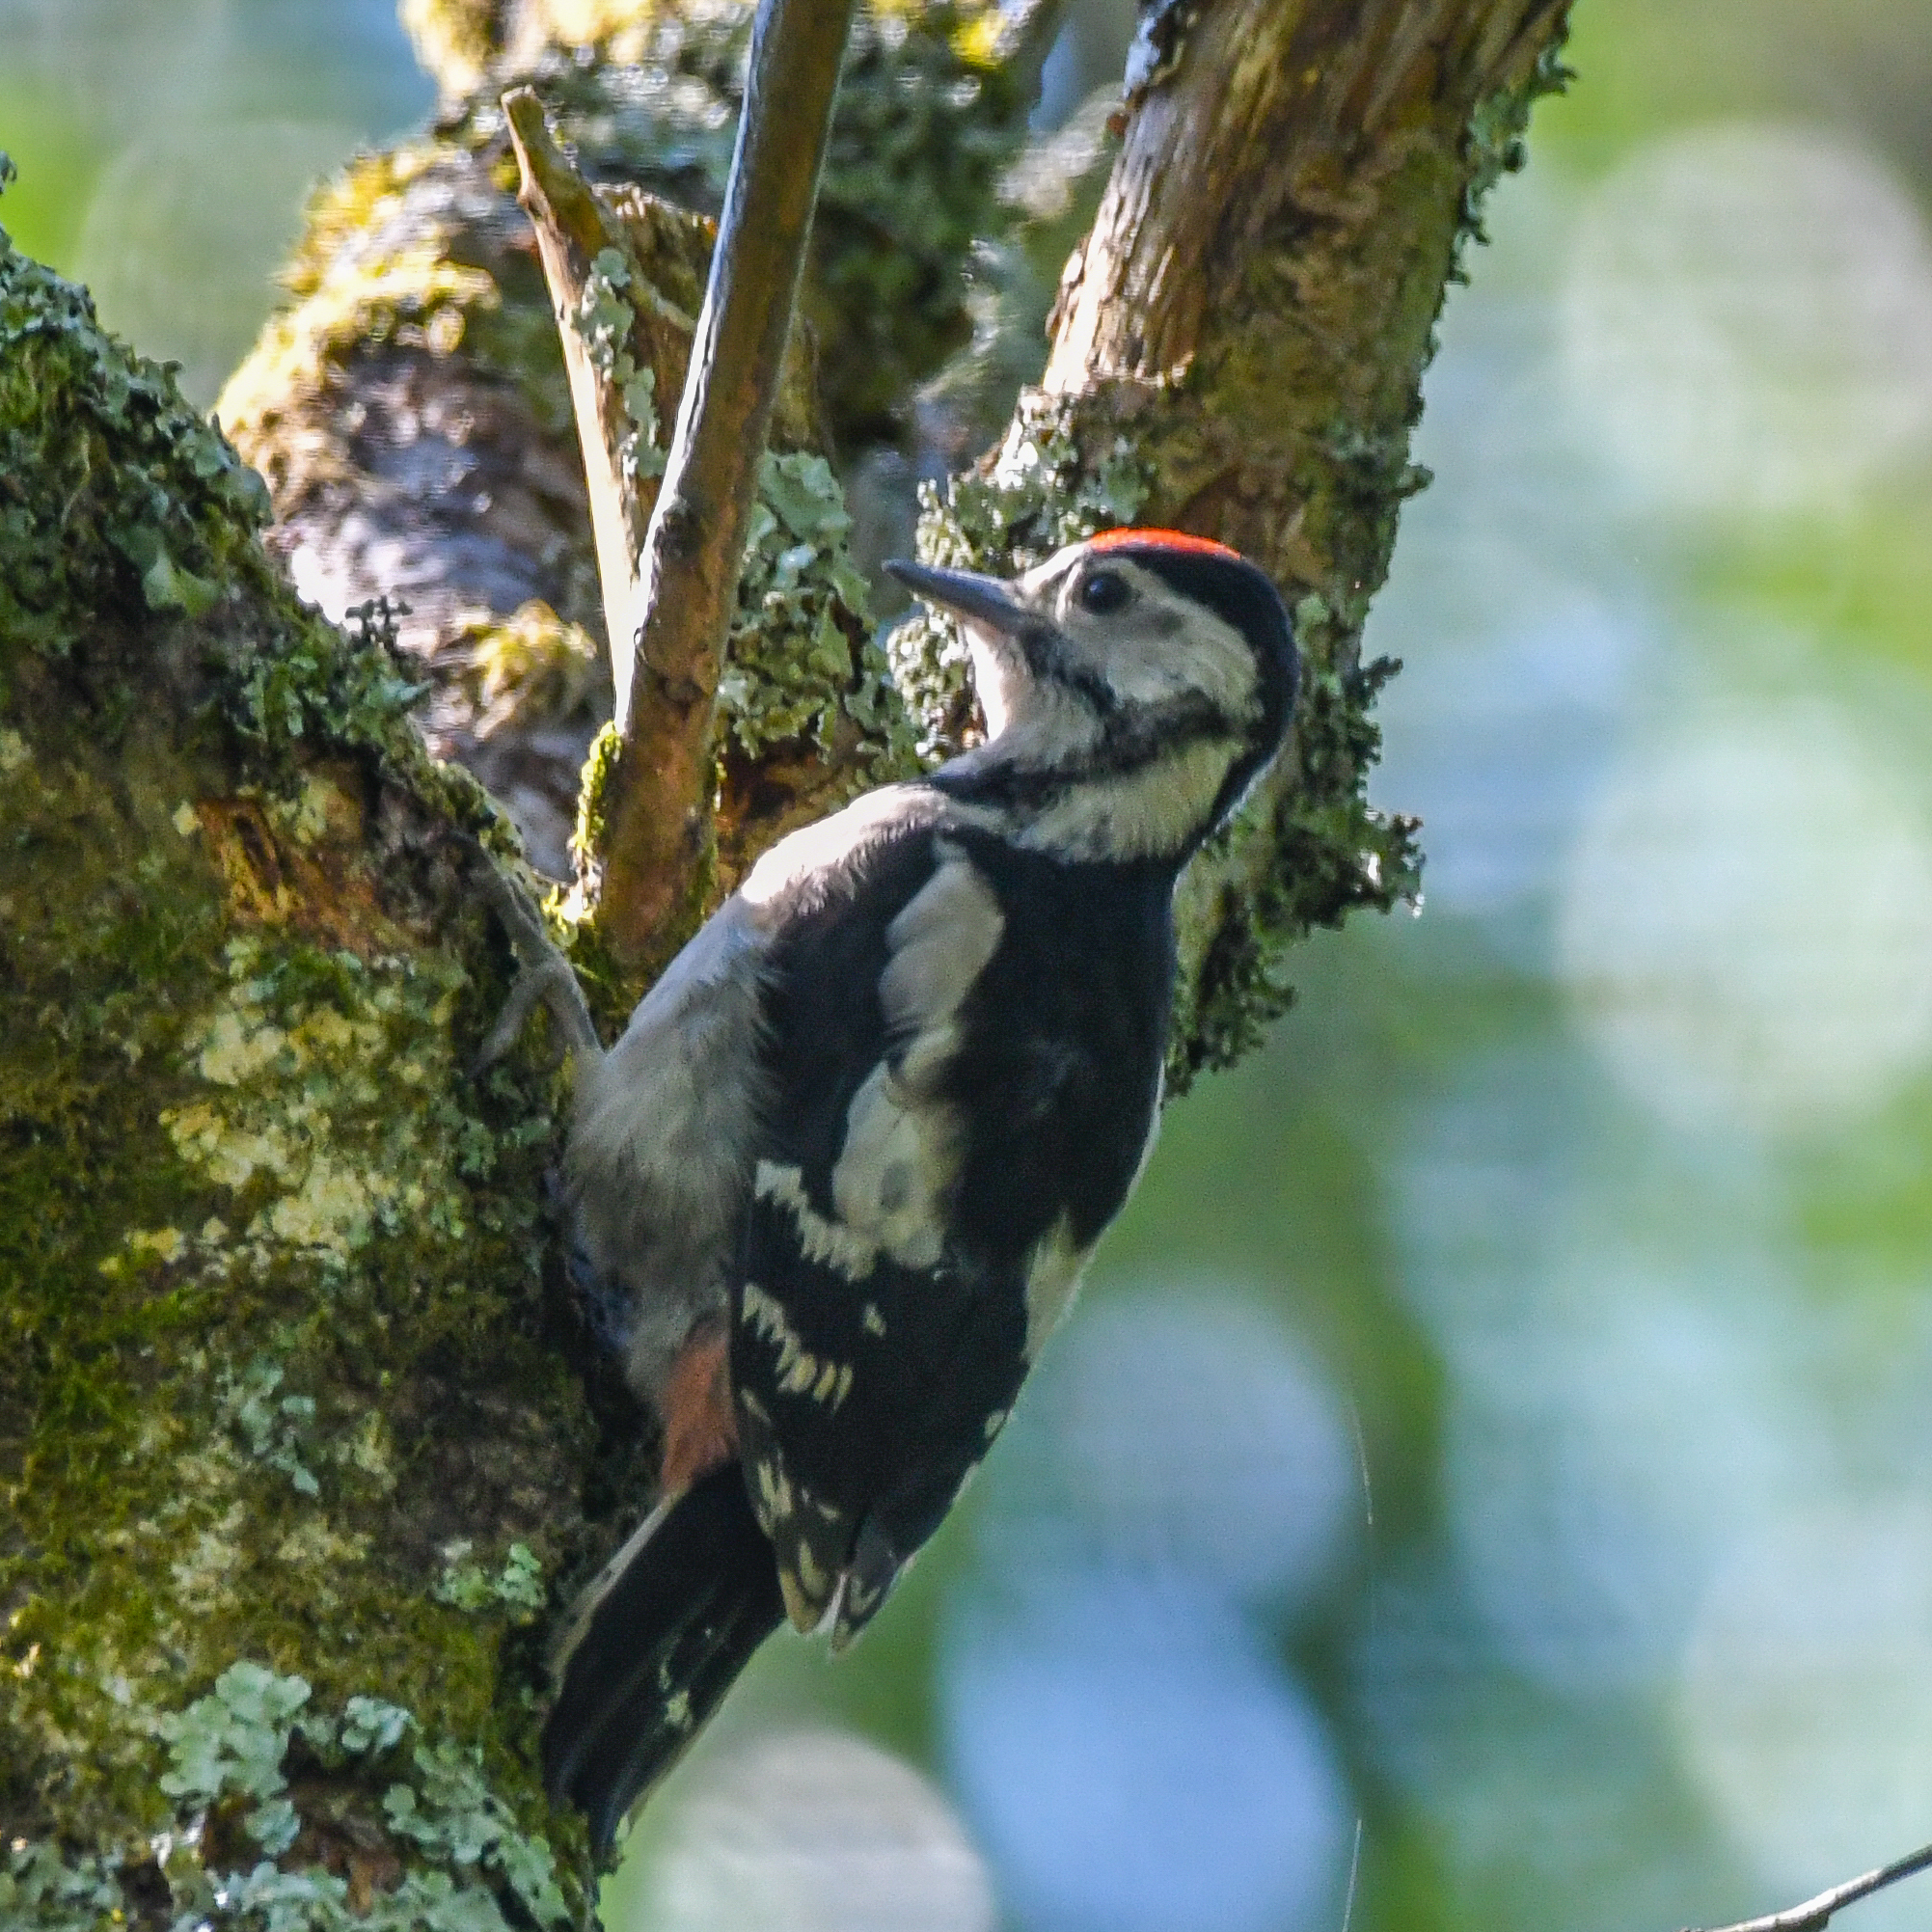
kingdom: Animalia
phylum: Chordata
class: Aves
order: Piciformes
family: Picidae
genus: Dendrocopos
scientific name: Dendrocopos major
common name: Great spotted woodpecker
